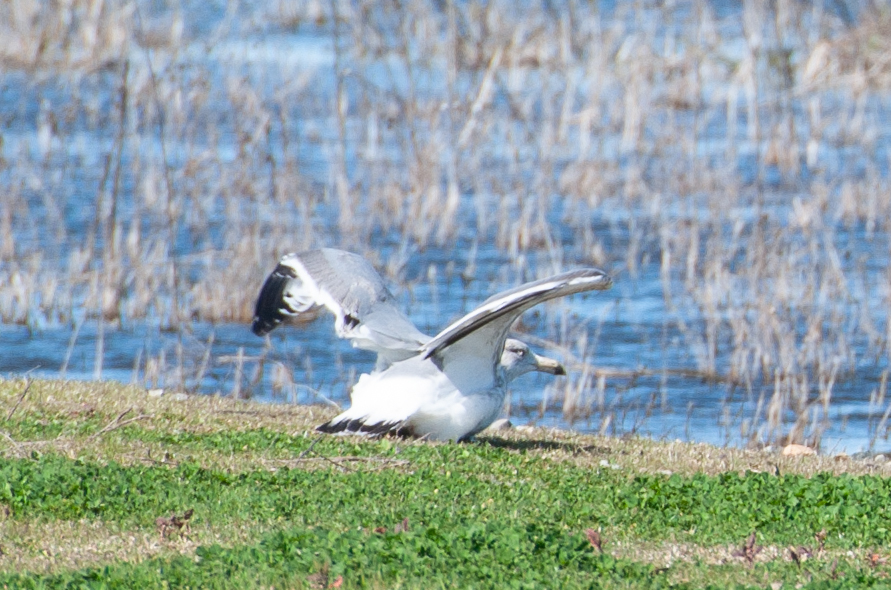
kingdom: Animalia
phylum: Chordata
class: Aves
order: Charadriiformes
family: Laridae
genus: Larus
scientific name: Larus argentatus
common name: Herring gull
